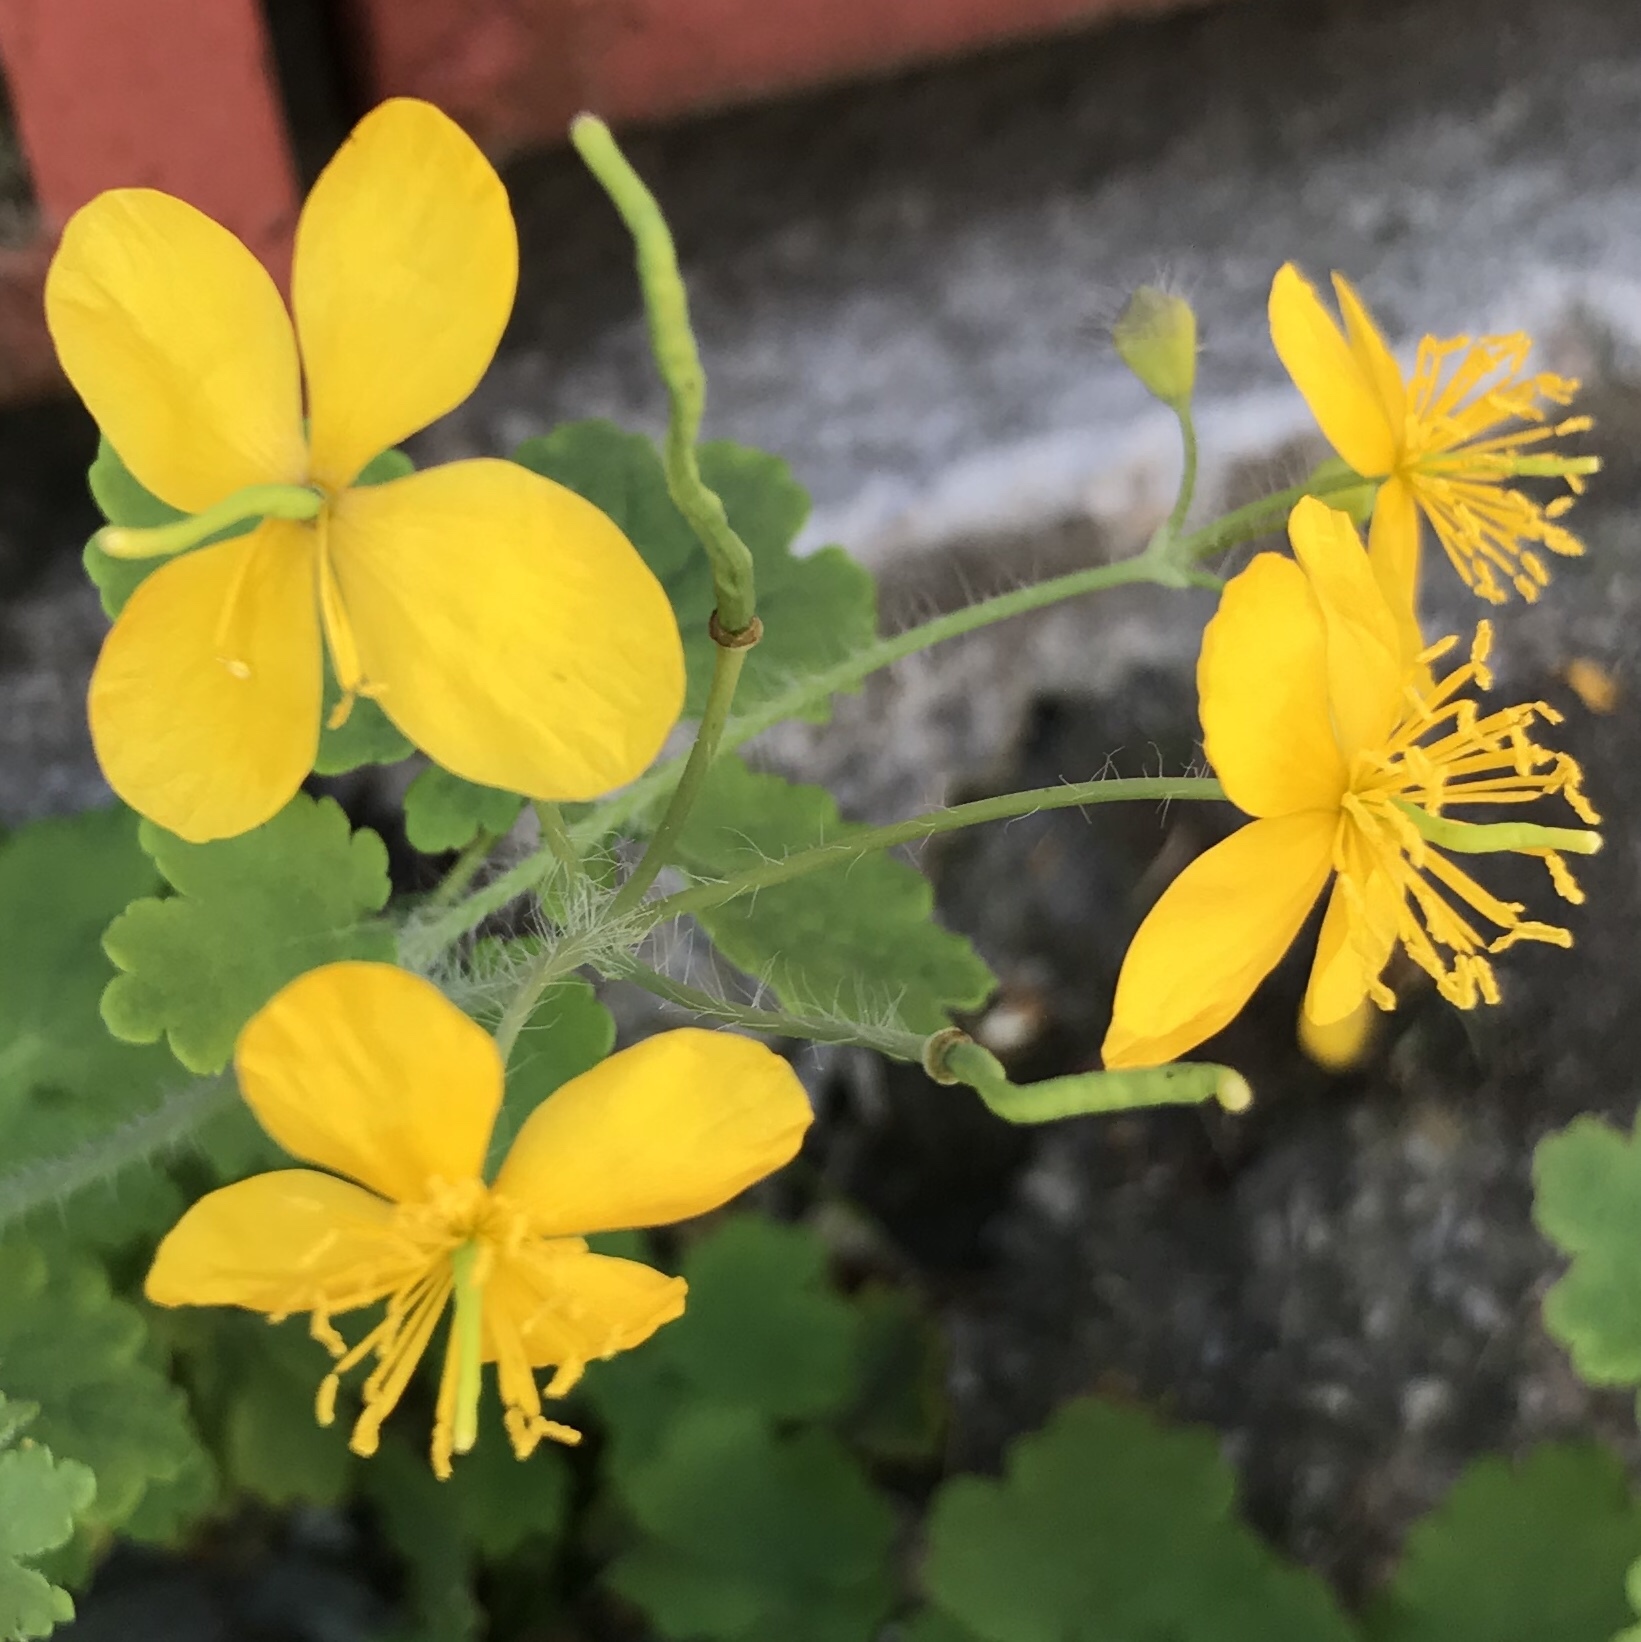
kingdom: Plantae
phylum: Tracheophyta
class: Magnoliopsida
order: Ranunculales
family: Papaveraceae
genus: Chelidonium
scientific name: Chelidonium majus
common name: Greater celandine
